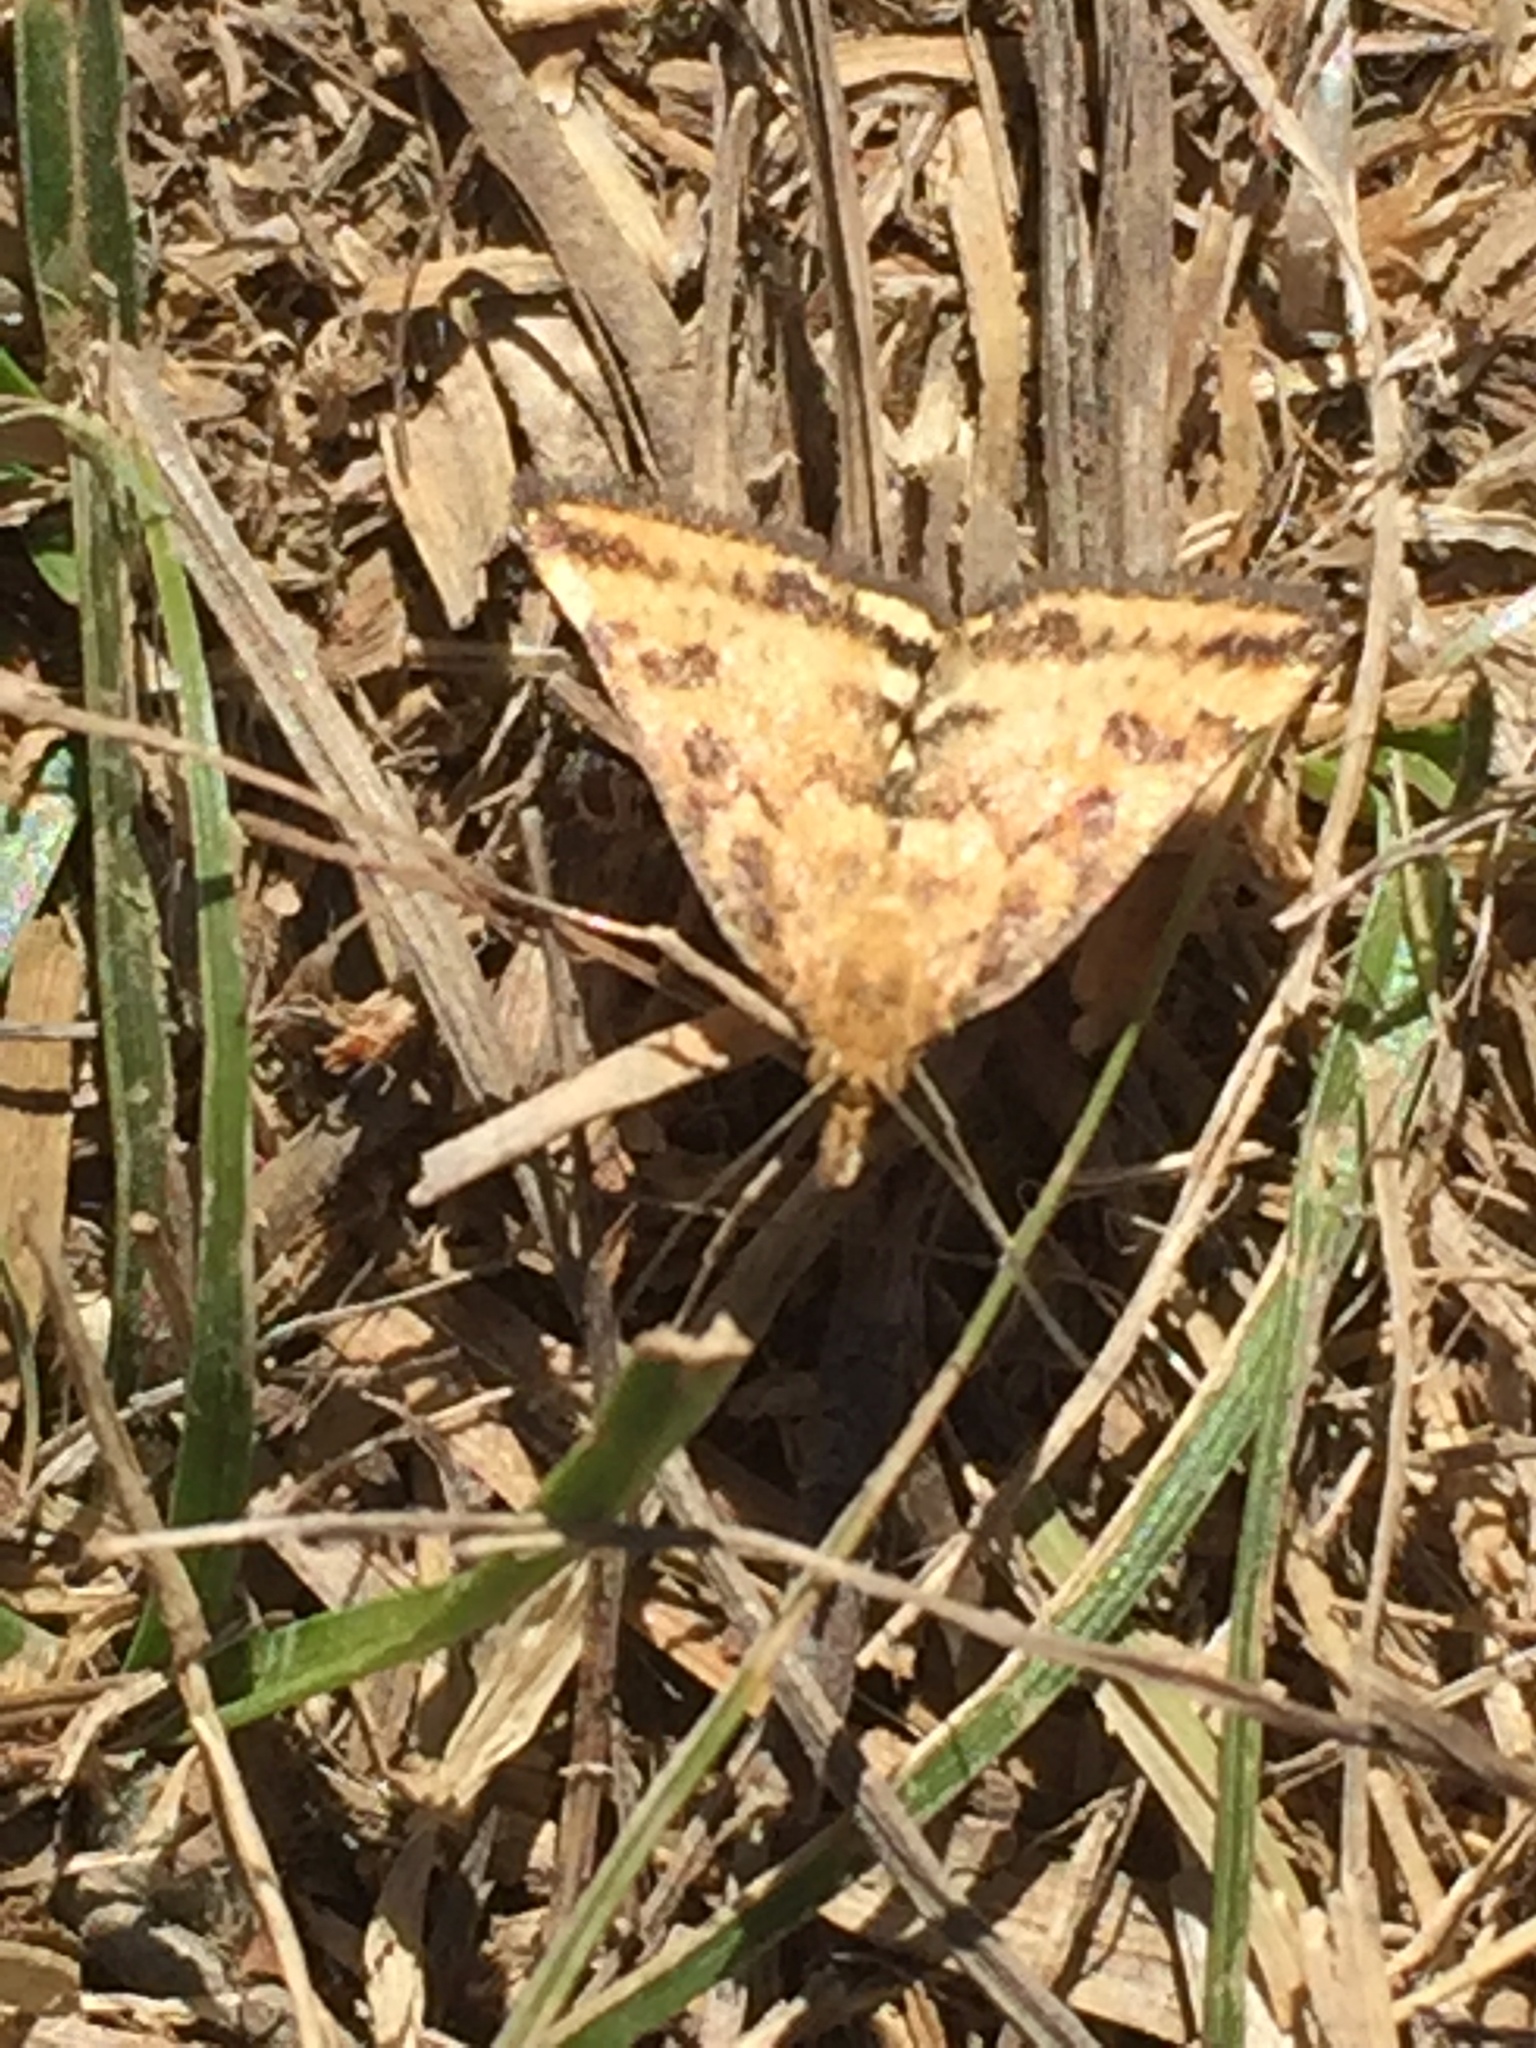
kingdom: Animalia
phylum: Arthropoda
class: Insecta
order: Lepidoptera
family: Crambidae
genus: Pyrausta
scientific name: Pyrausta subsequalis
